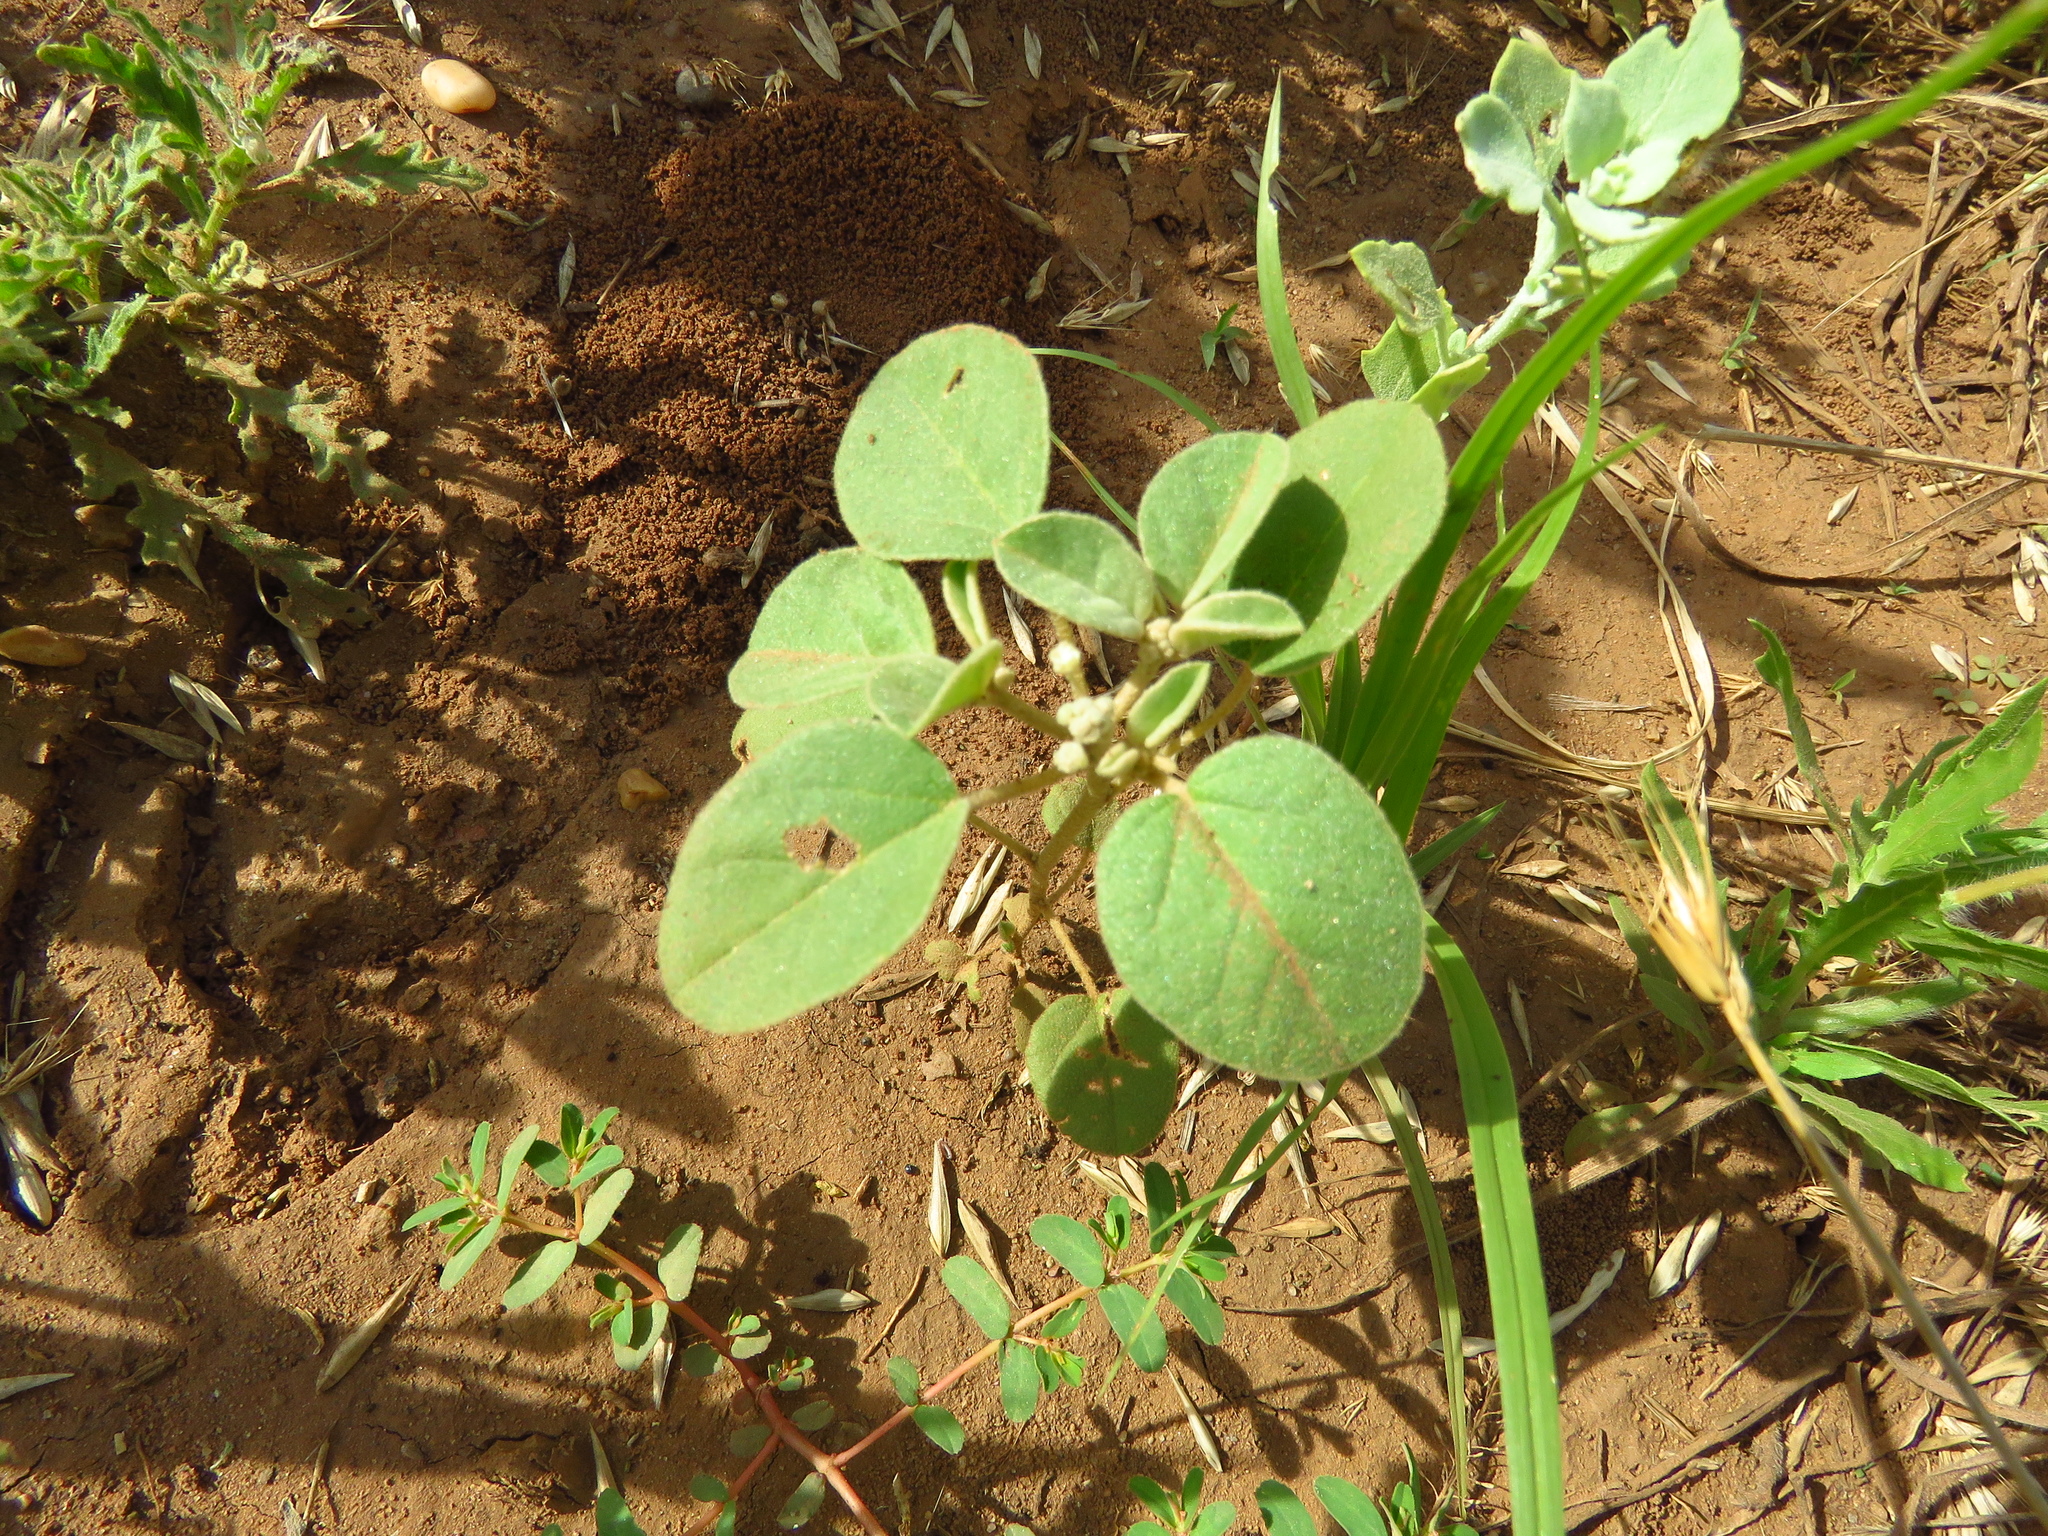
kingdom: Plantae
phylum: Tracheophyta
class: Magnoliopsida
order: Malpighiales
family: Euphorbiaceae
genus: Croton
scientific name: Croton lindheimerianus
